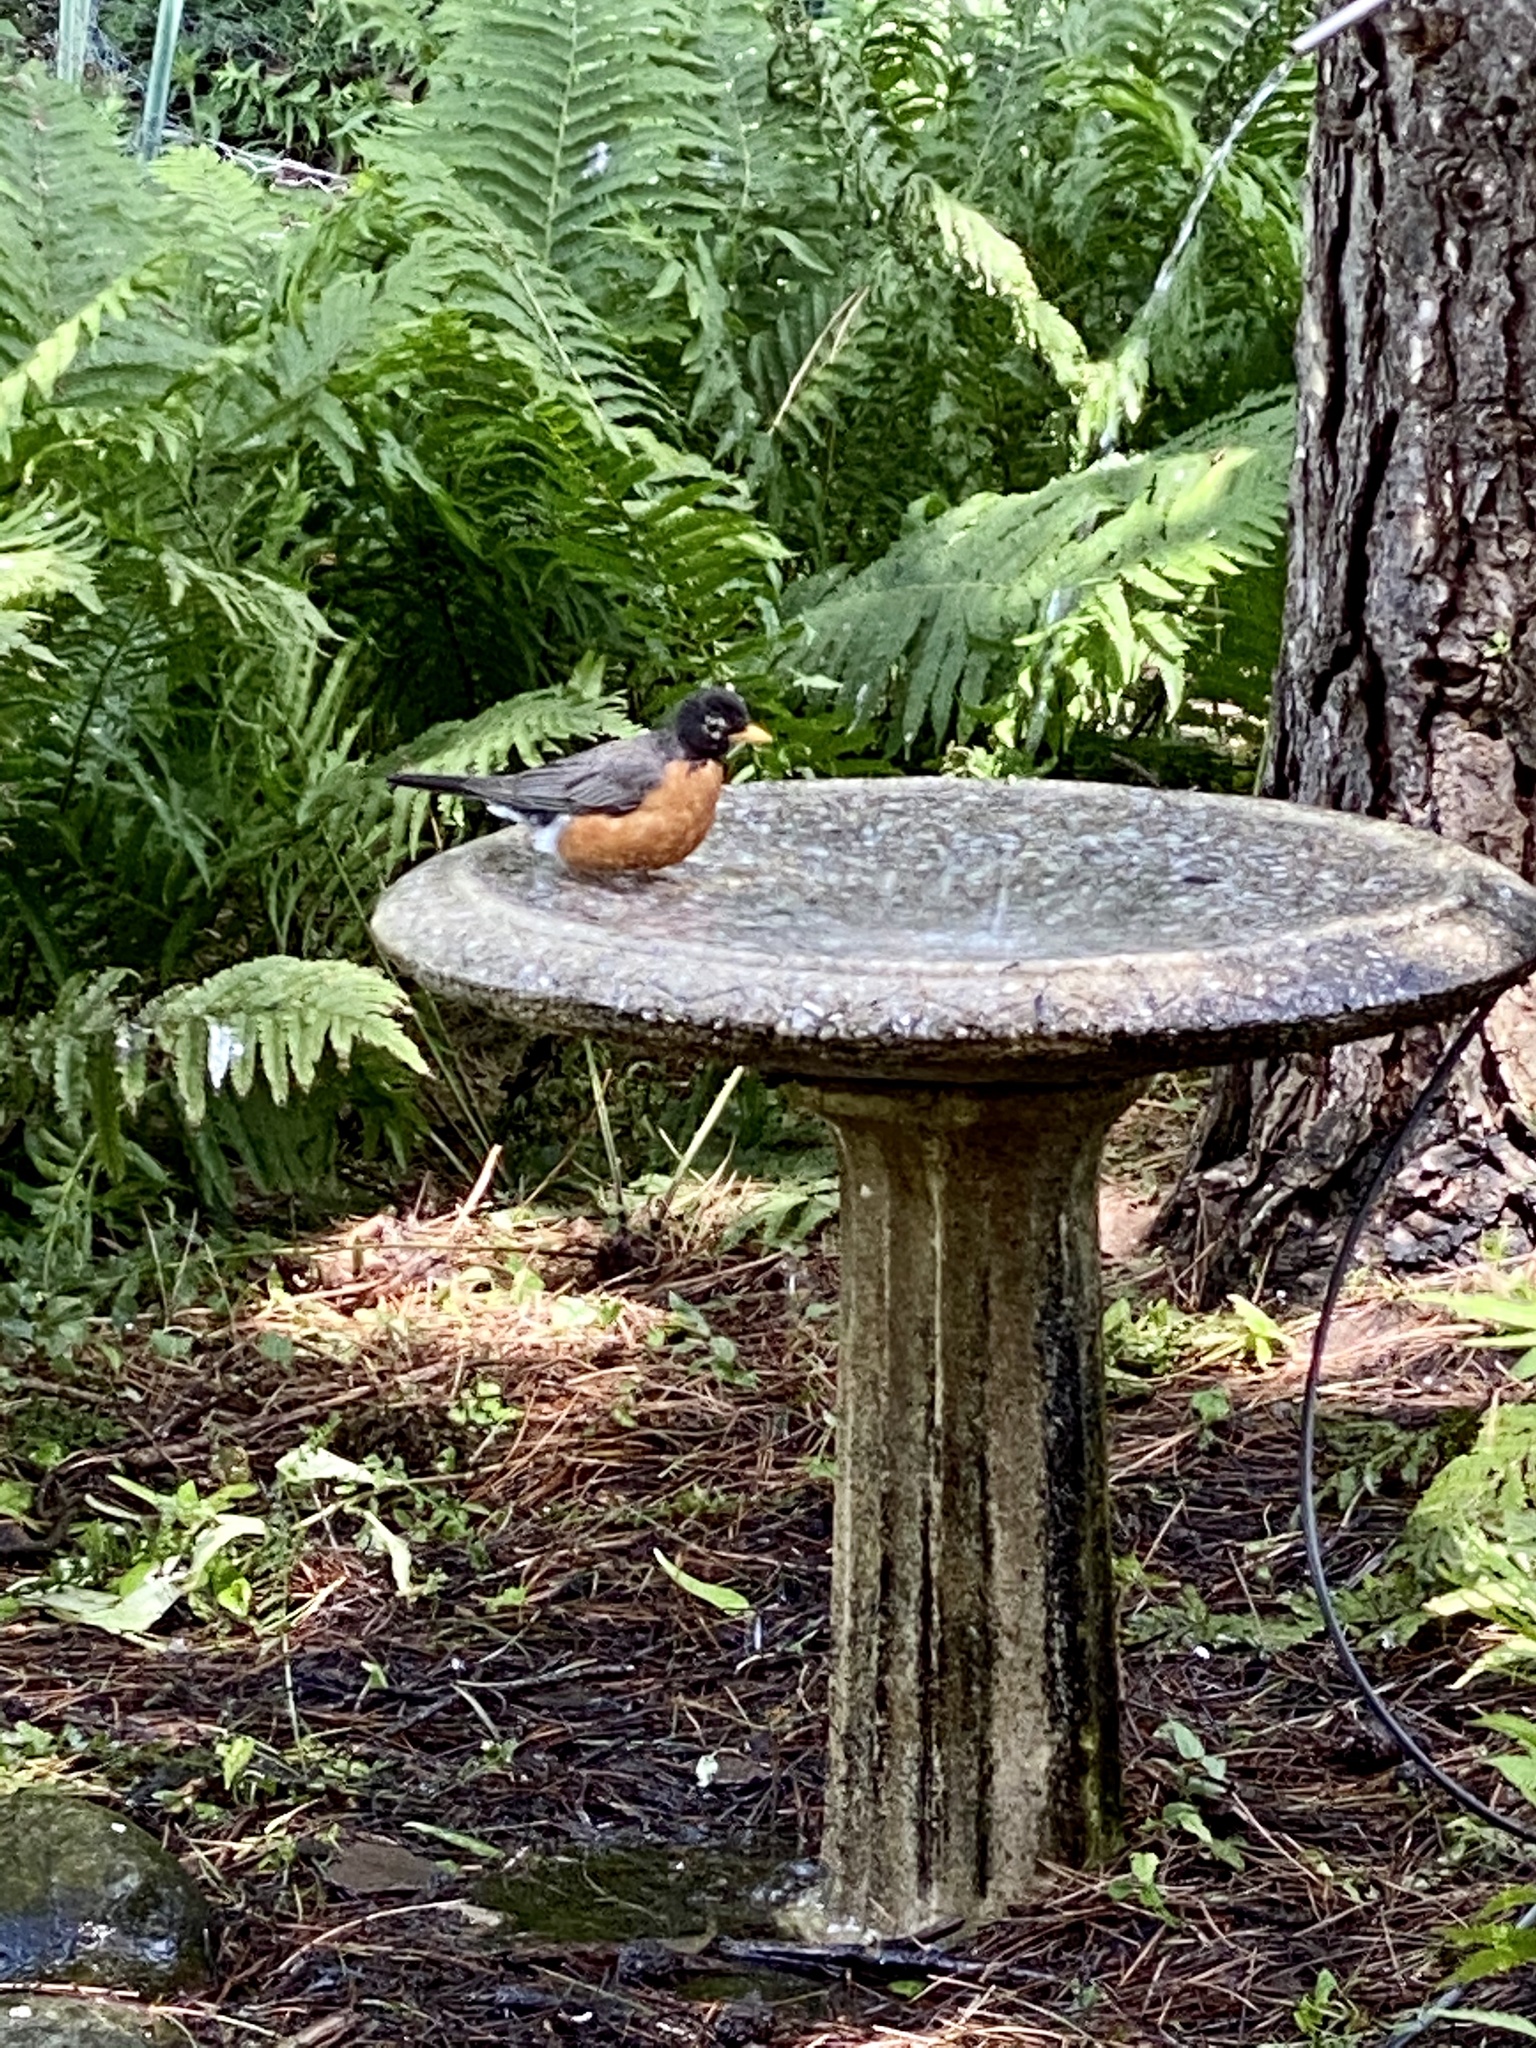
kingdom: Animalia
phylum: Chordata
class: Aves
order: Passeriformes
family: Turdidae
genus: Turdus
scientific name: Turdus migratorius
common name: American robin
